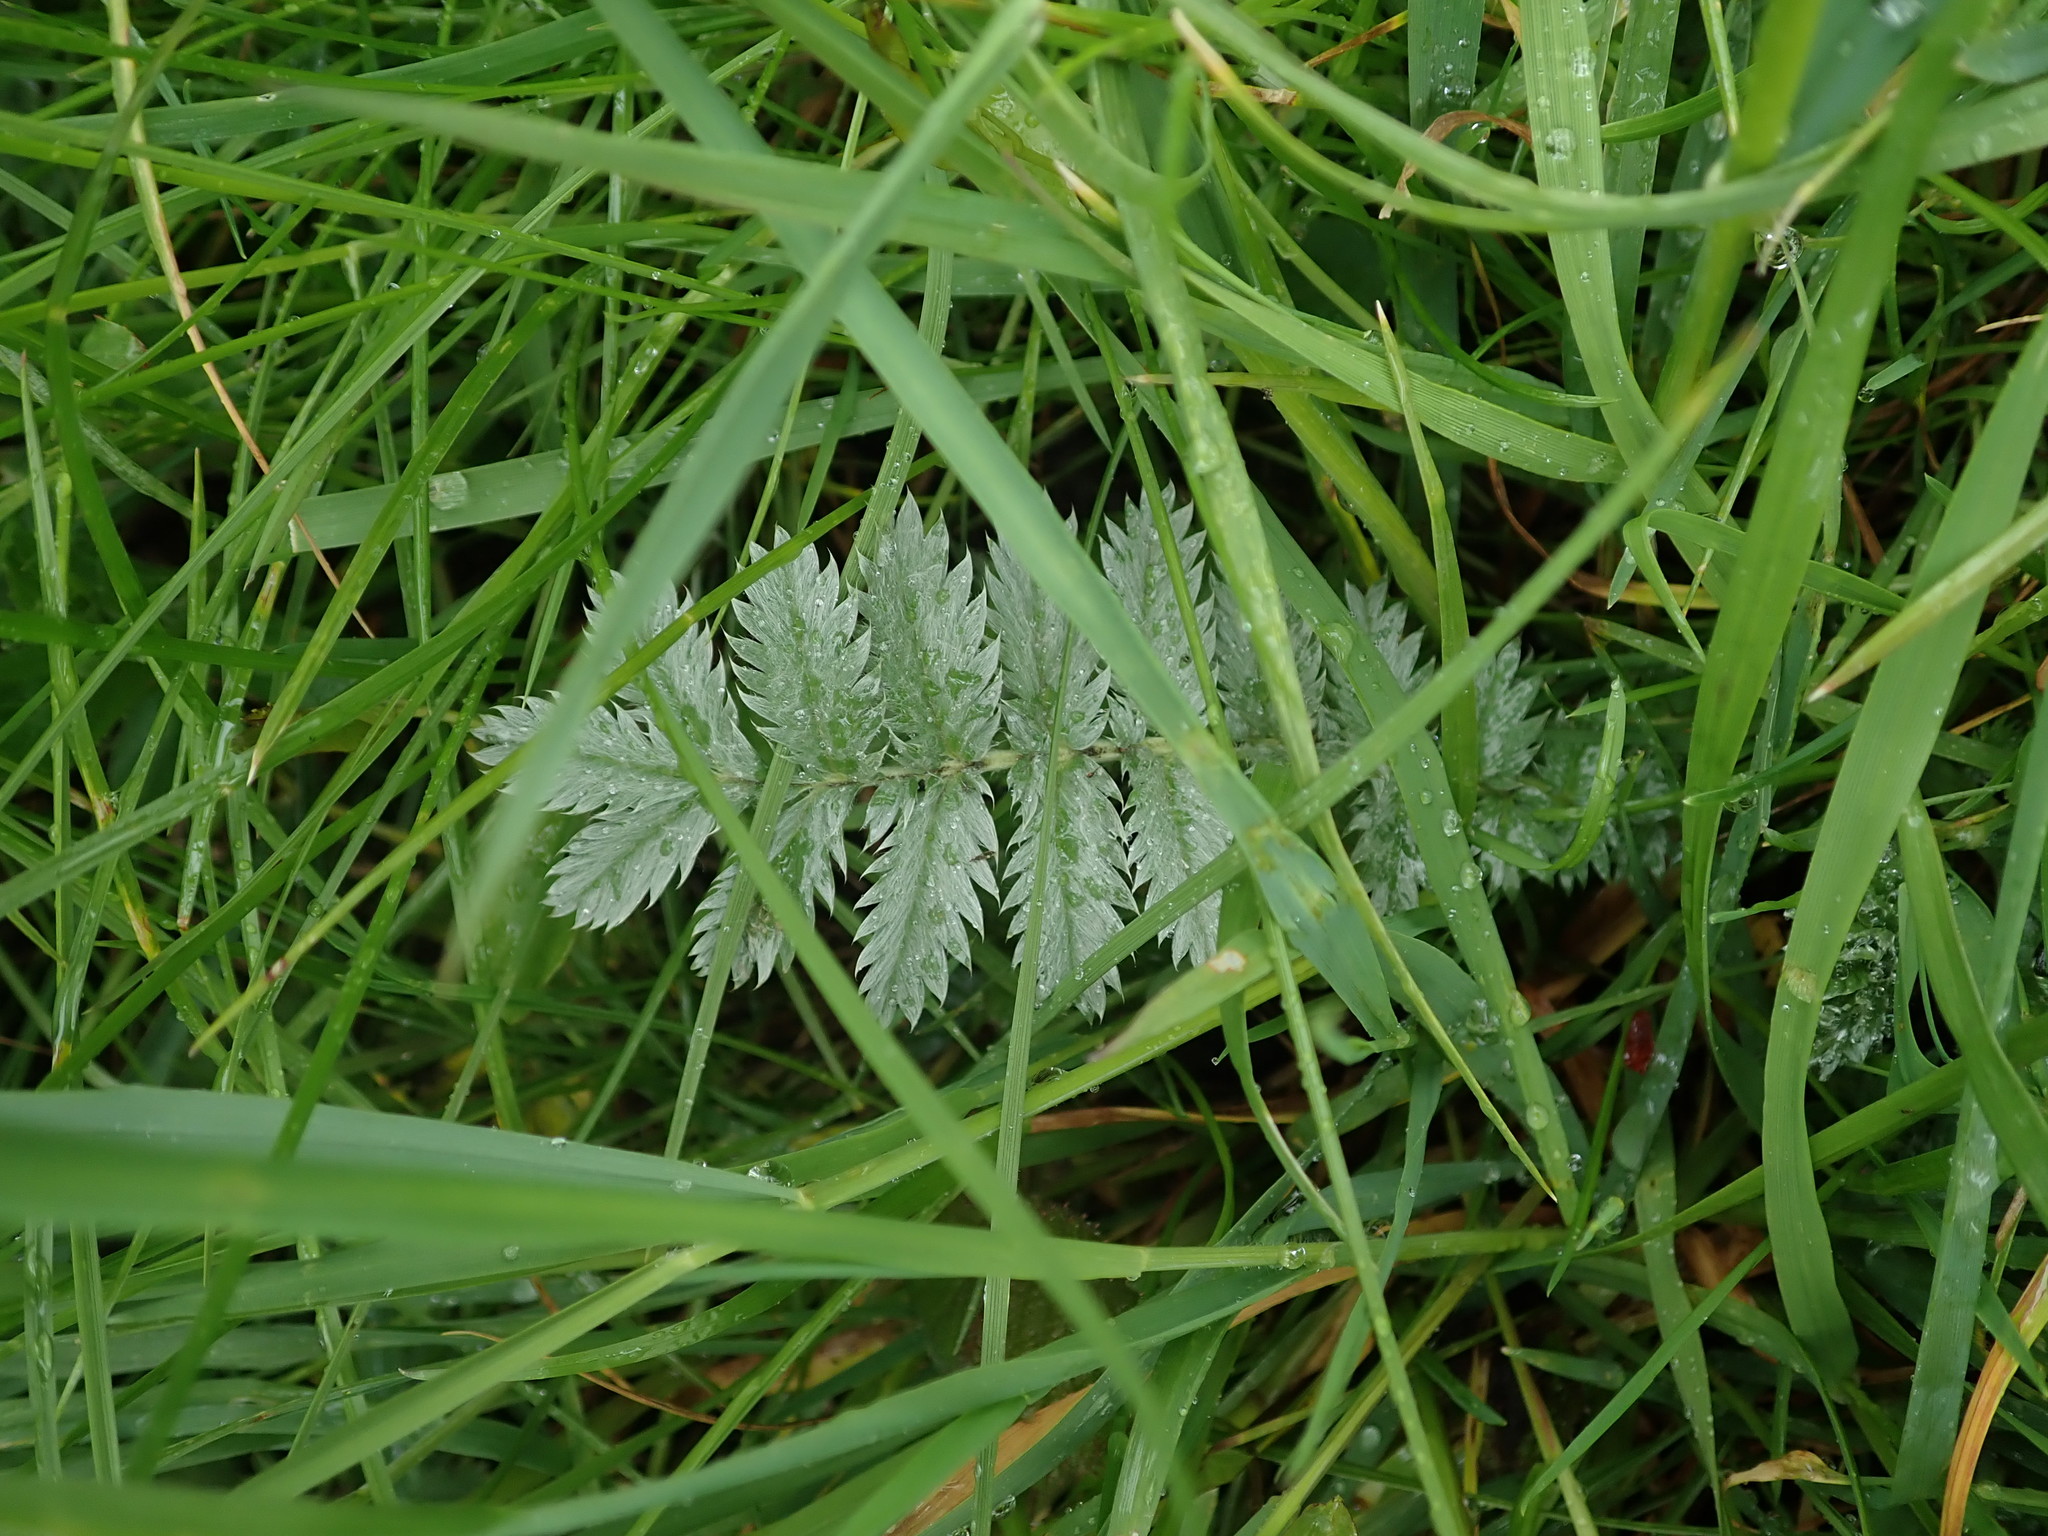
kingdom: Plantae
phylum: Tracheophyta
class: Magnoliopsida
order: Rosales
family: Rosaceae
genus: Argentina
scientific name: Argentina anserina
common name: Common silverweed
